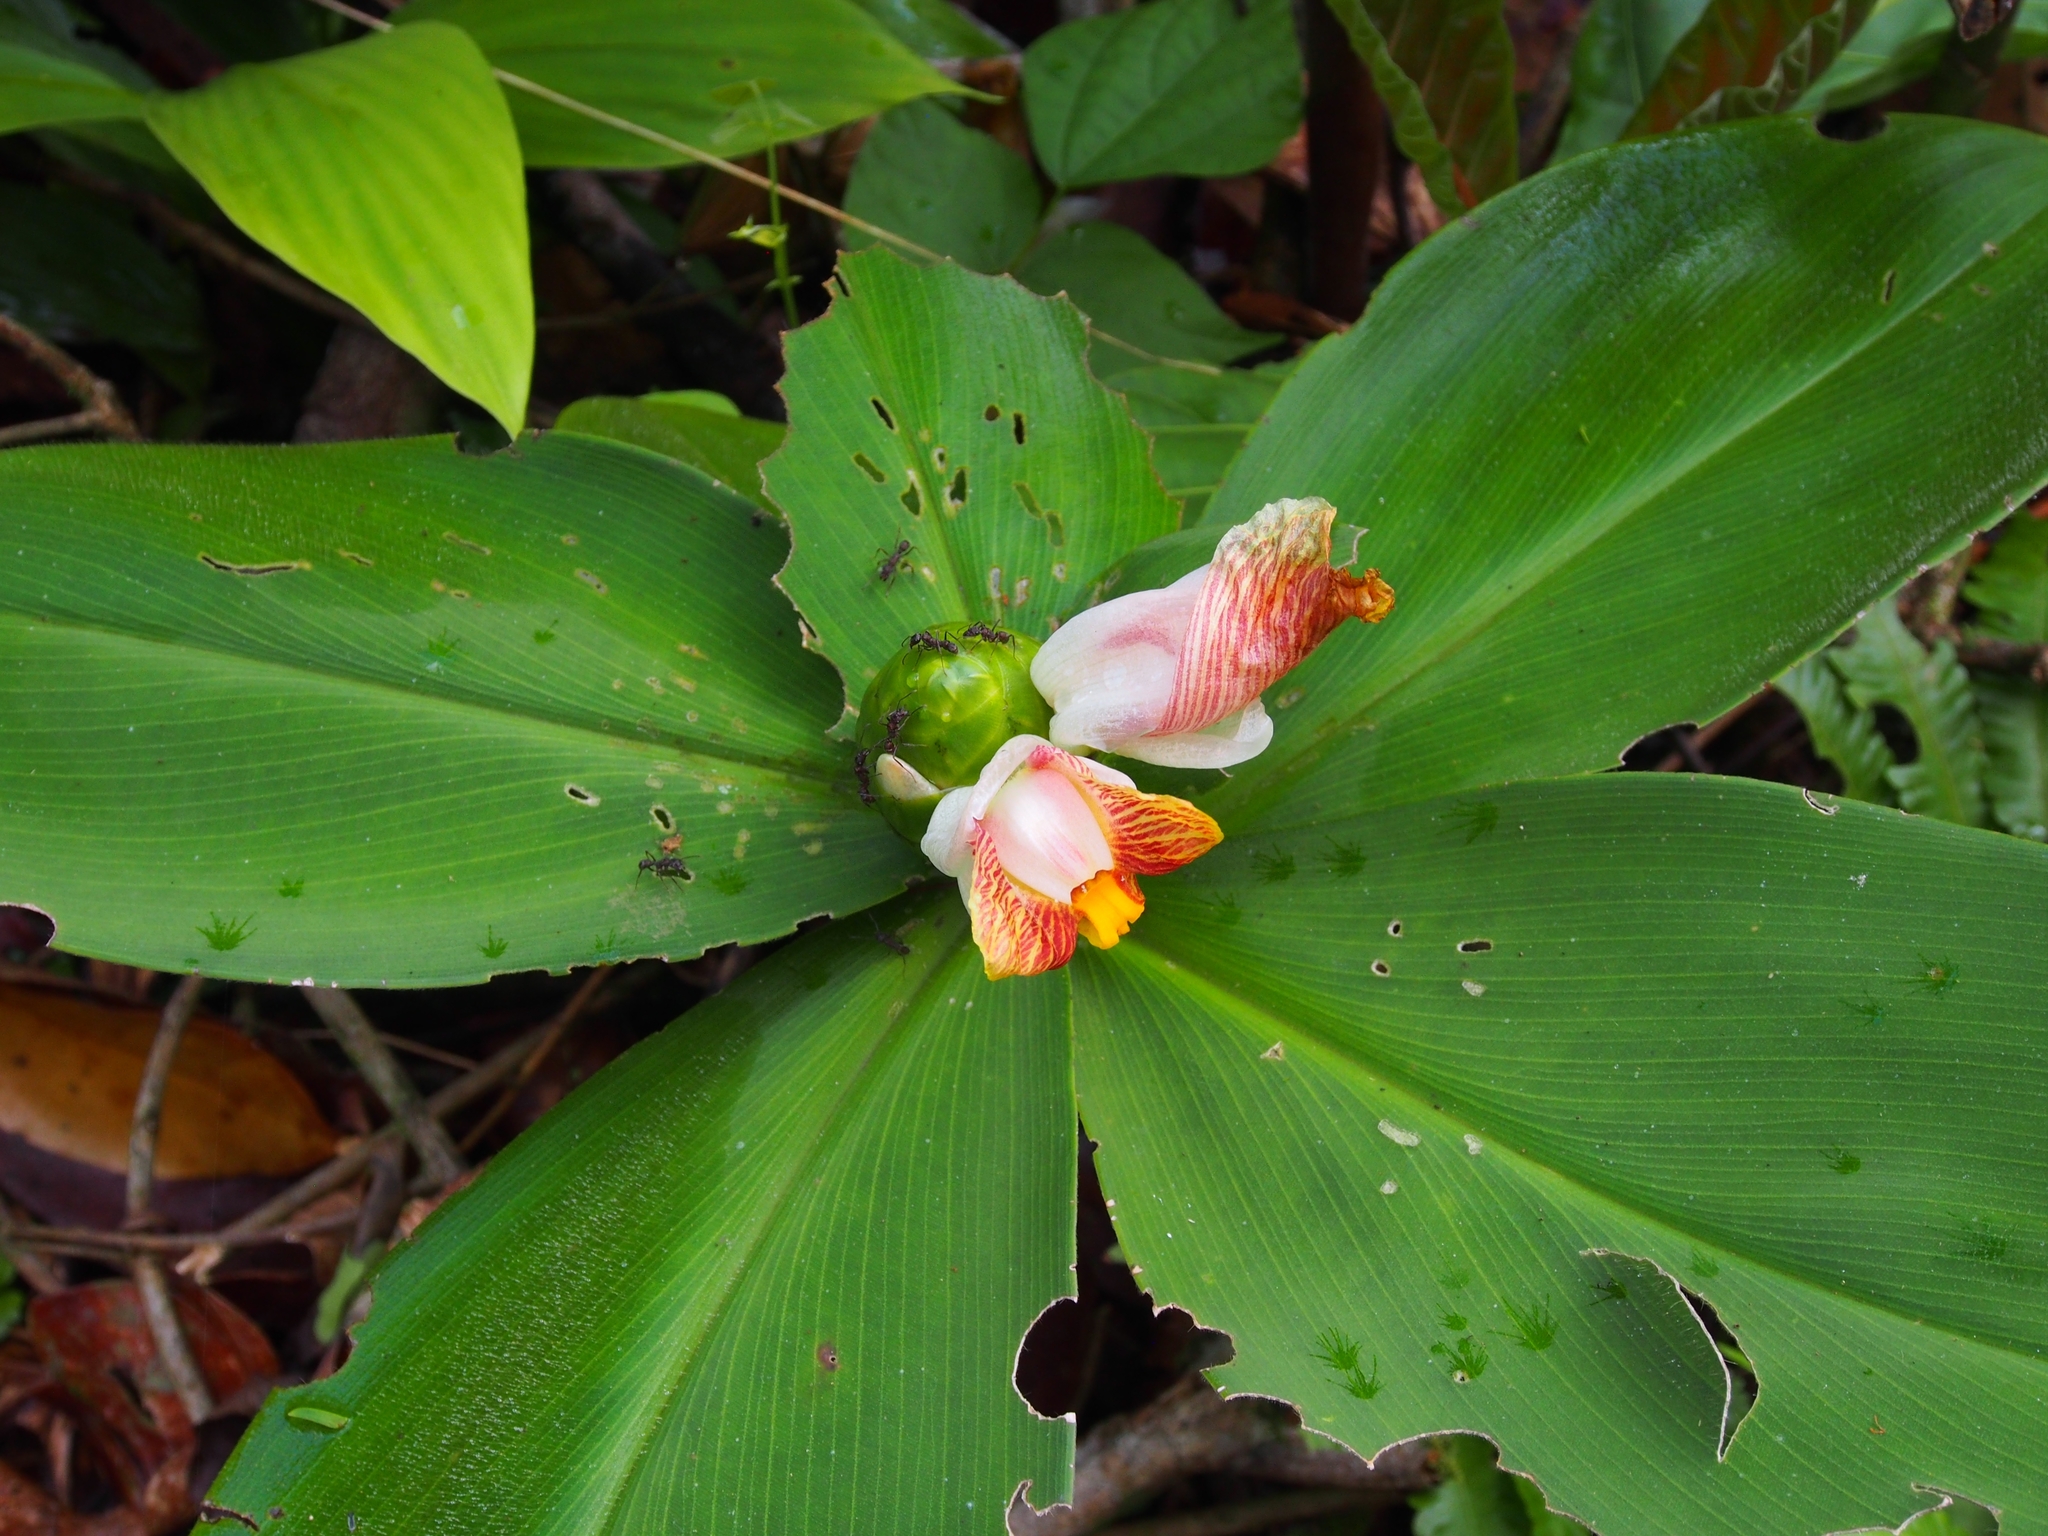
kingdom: Plantae
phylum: Tracheophyta
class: Liliopsida
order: Zingiberales
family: Costaceae
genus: Costus
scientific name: Costus elegans
